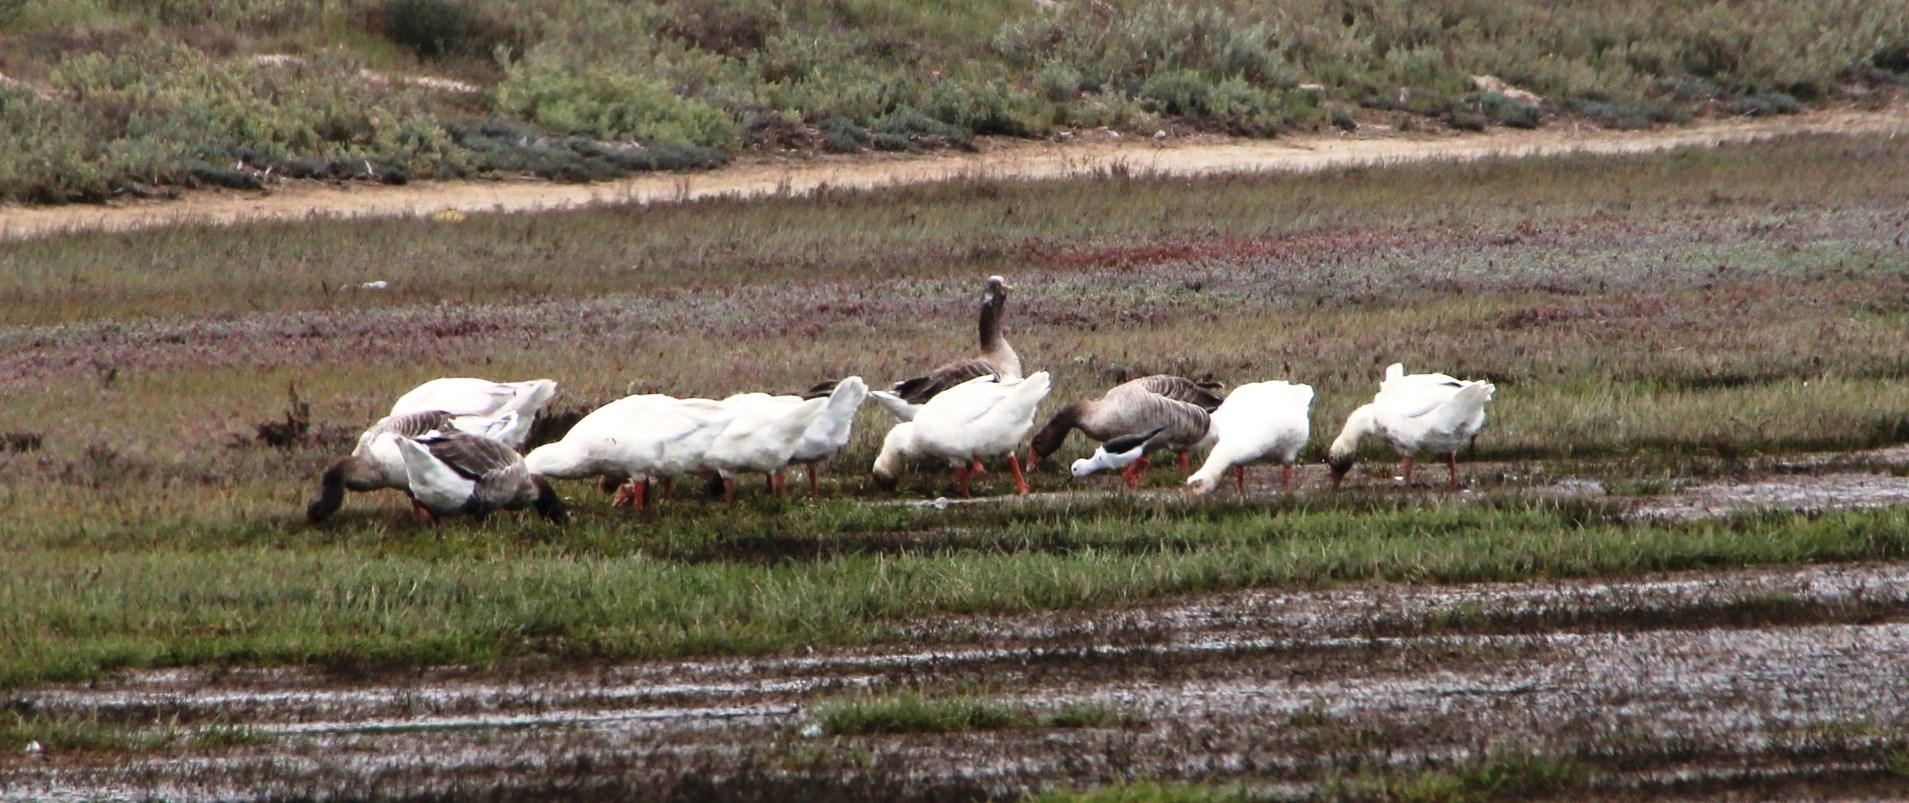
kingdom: Animalia
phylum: Chordata
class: Aves
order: Anseriformes
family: Anatidae
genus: Anser
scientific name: Anser anser
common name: Greylag goose
